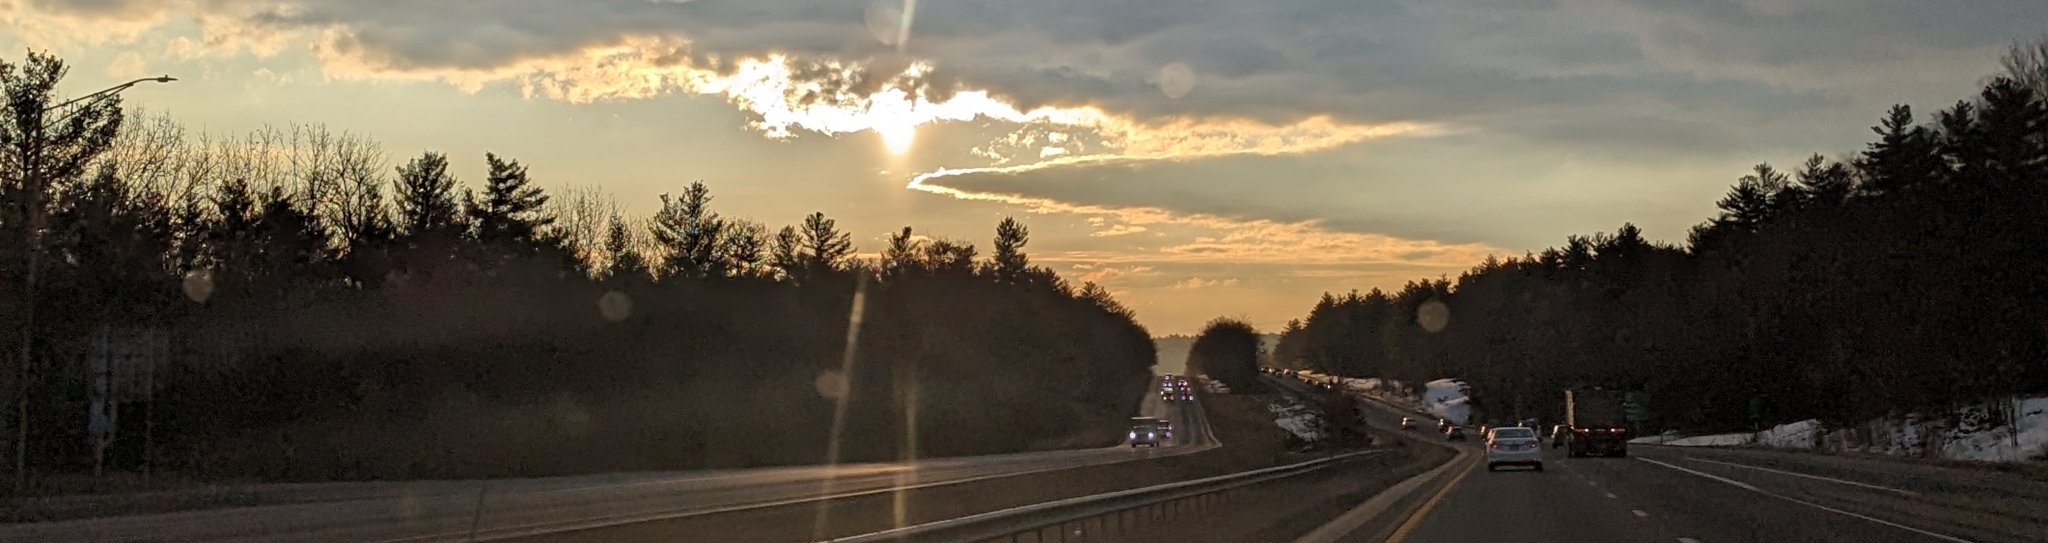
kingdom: Plantae
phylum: Tracheophyta
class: Pinopsida
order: Pinales
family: Pinaceae
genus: Pinus
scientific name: Pinus strobus
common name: Weymouth pine
